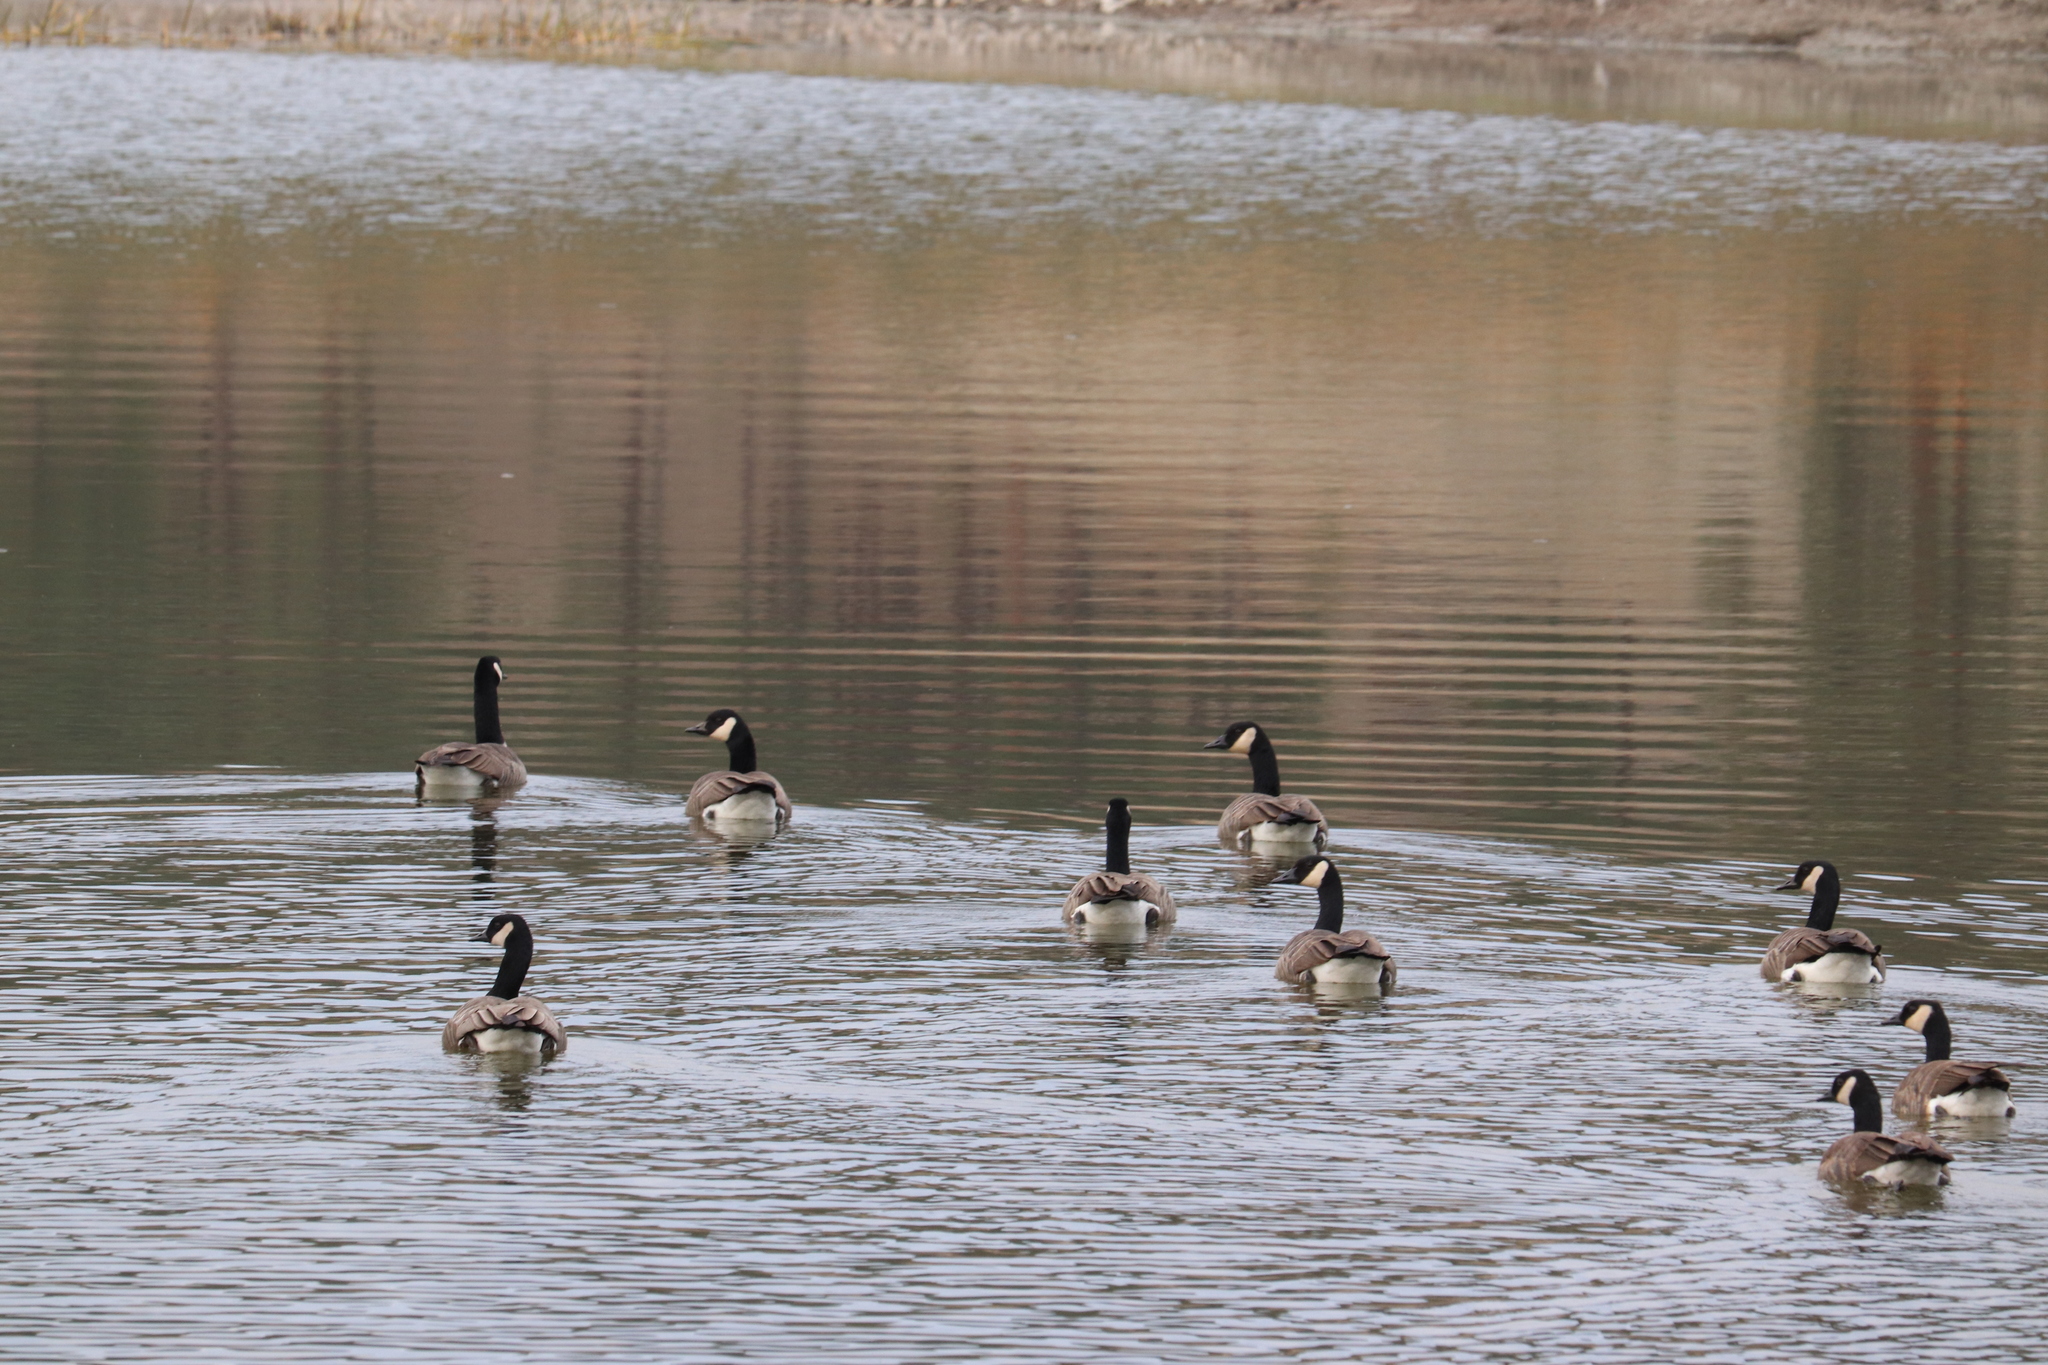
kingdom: Animalia
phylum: Chordata
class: Aves
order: Anseriformes
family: Anatidae
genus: Branta
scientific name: Branta canadensis
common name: Canada goose
